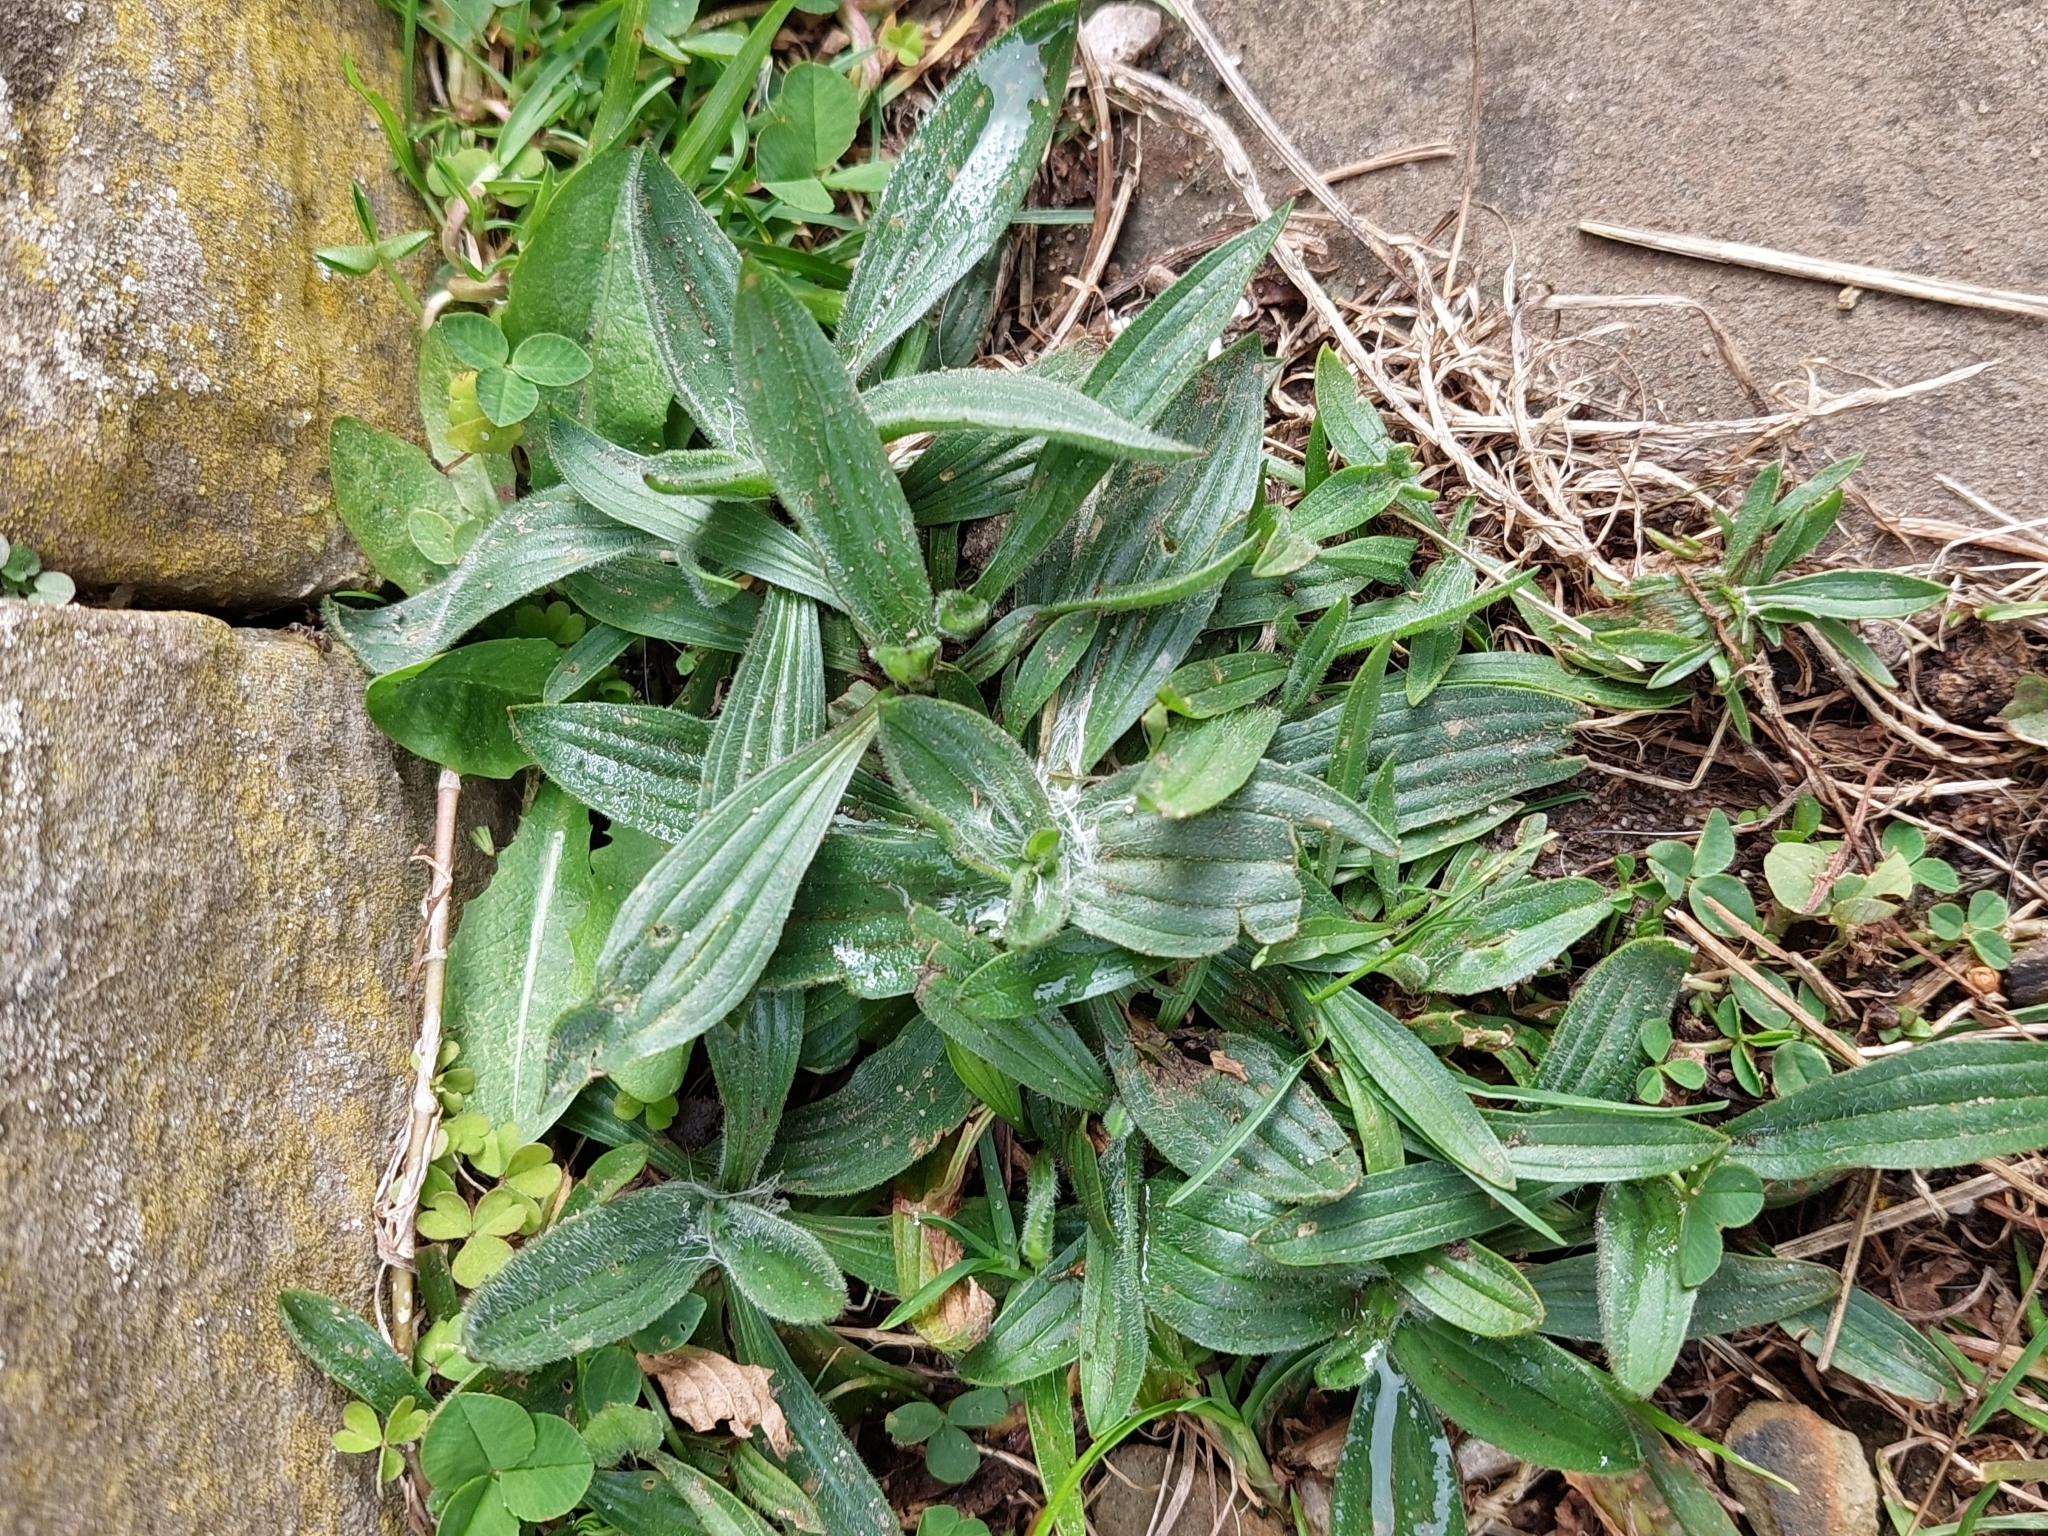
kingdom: Plantae
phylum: Tracheophyta
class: Magnoliopsida
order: Lamiales
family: Plantaginaceae
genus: Plantago
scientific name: Plantago lanceolata
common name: Ribwort plantain
